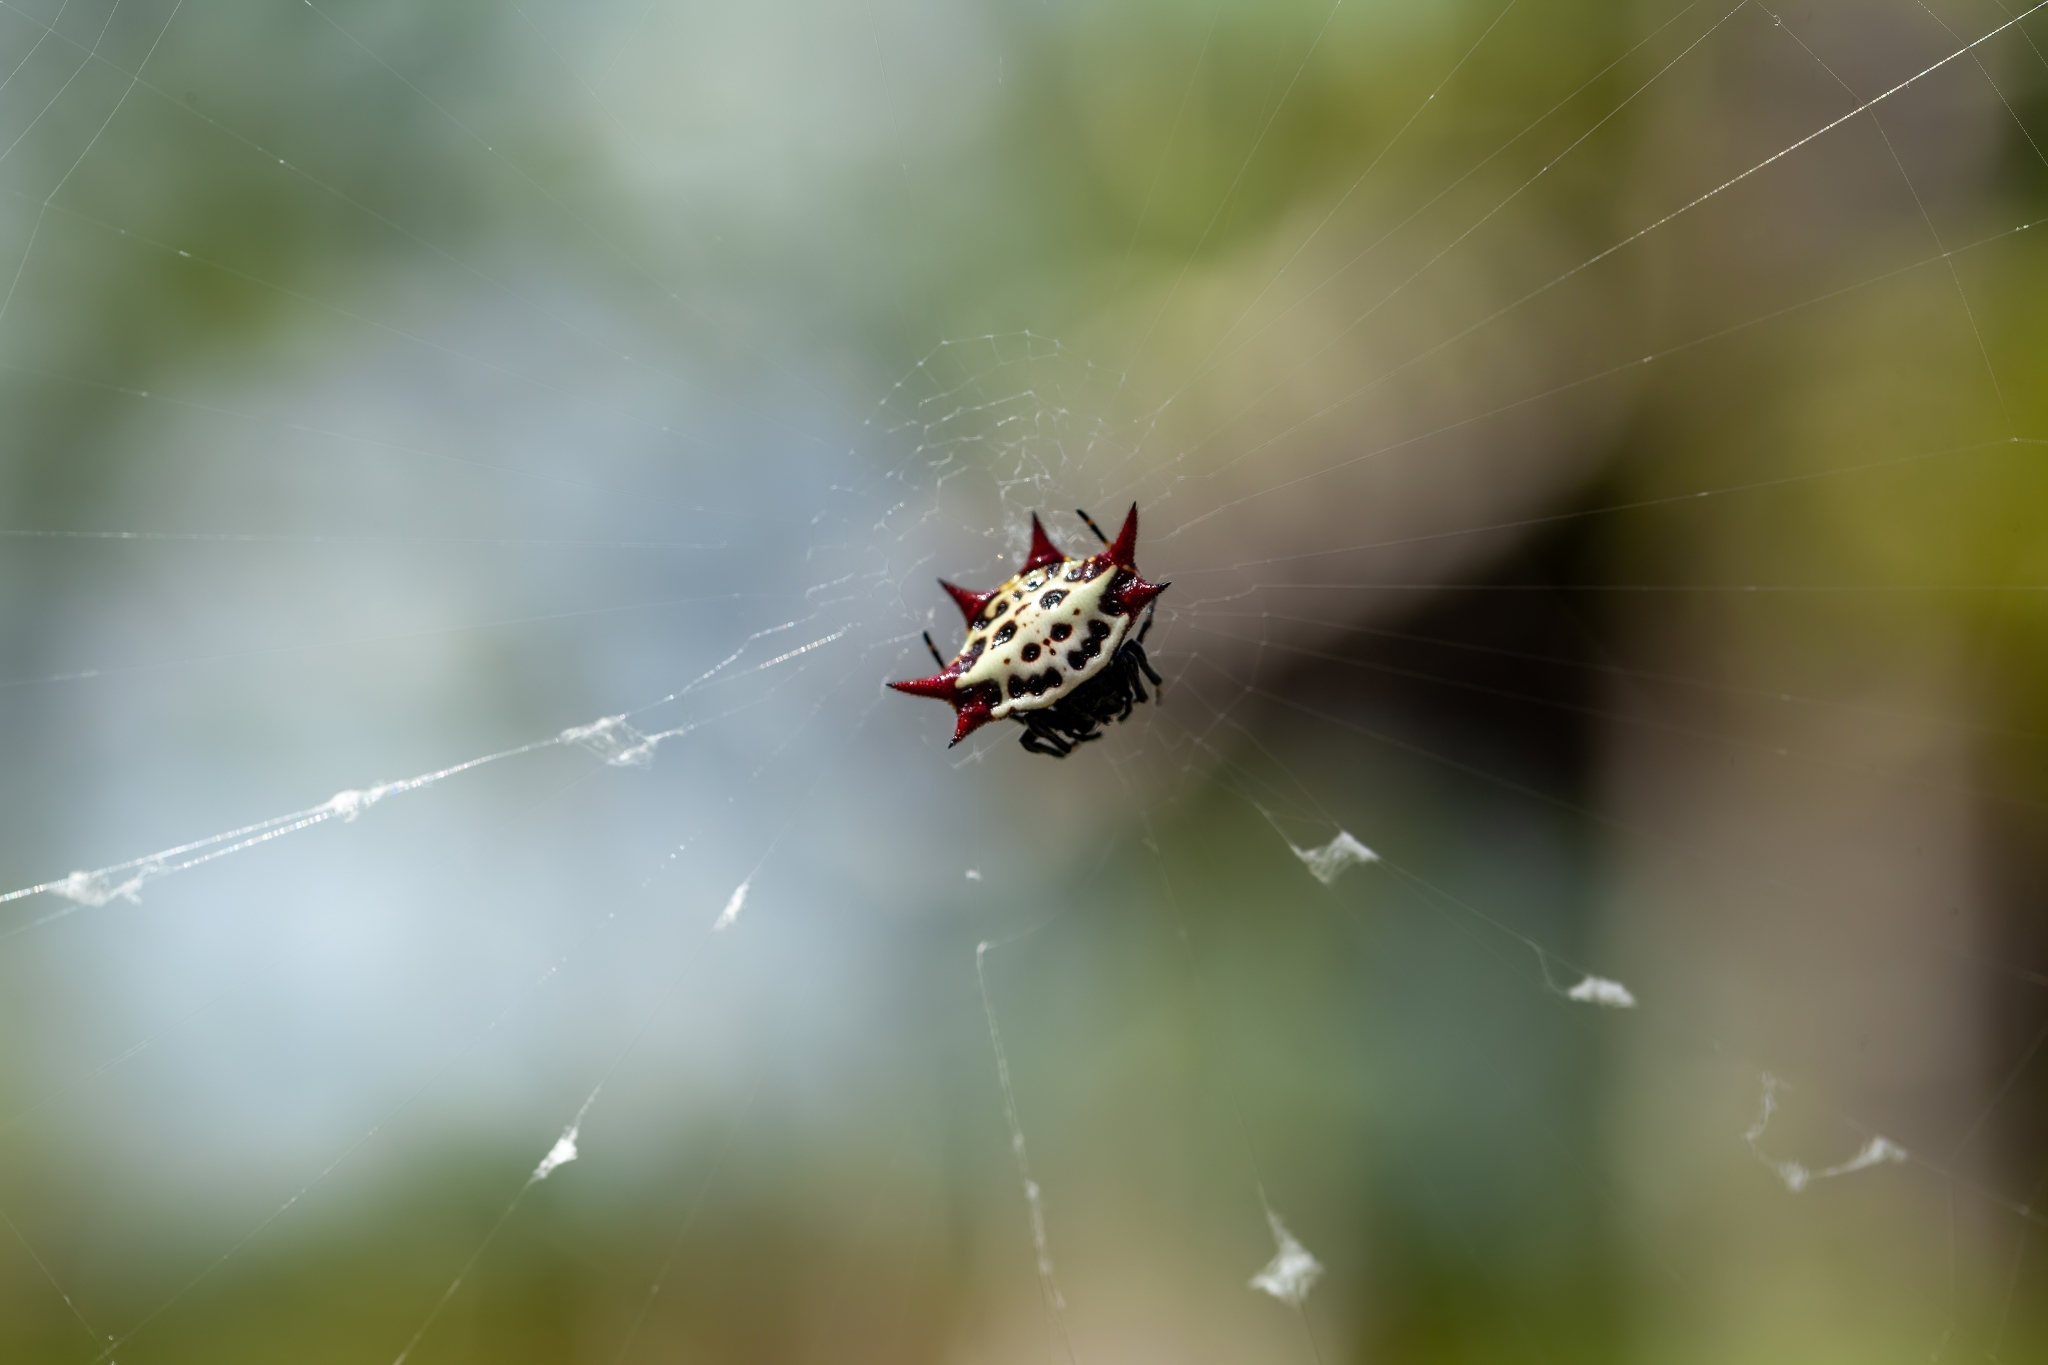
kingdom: Animalia
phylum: Arthropoda
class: Arachnida
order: Araneae
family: Araneidae
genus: Gasteracantha
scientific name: Gasteracantha cancriformis
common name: Orb weavers
